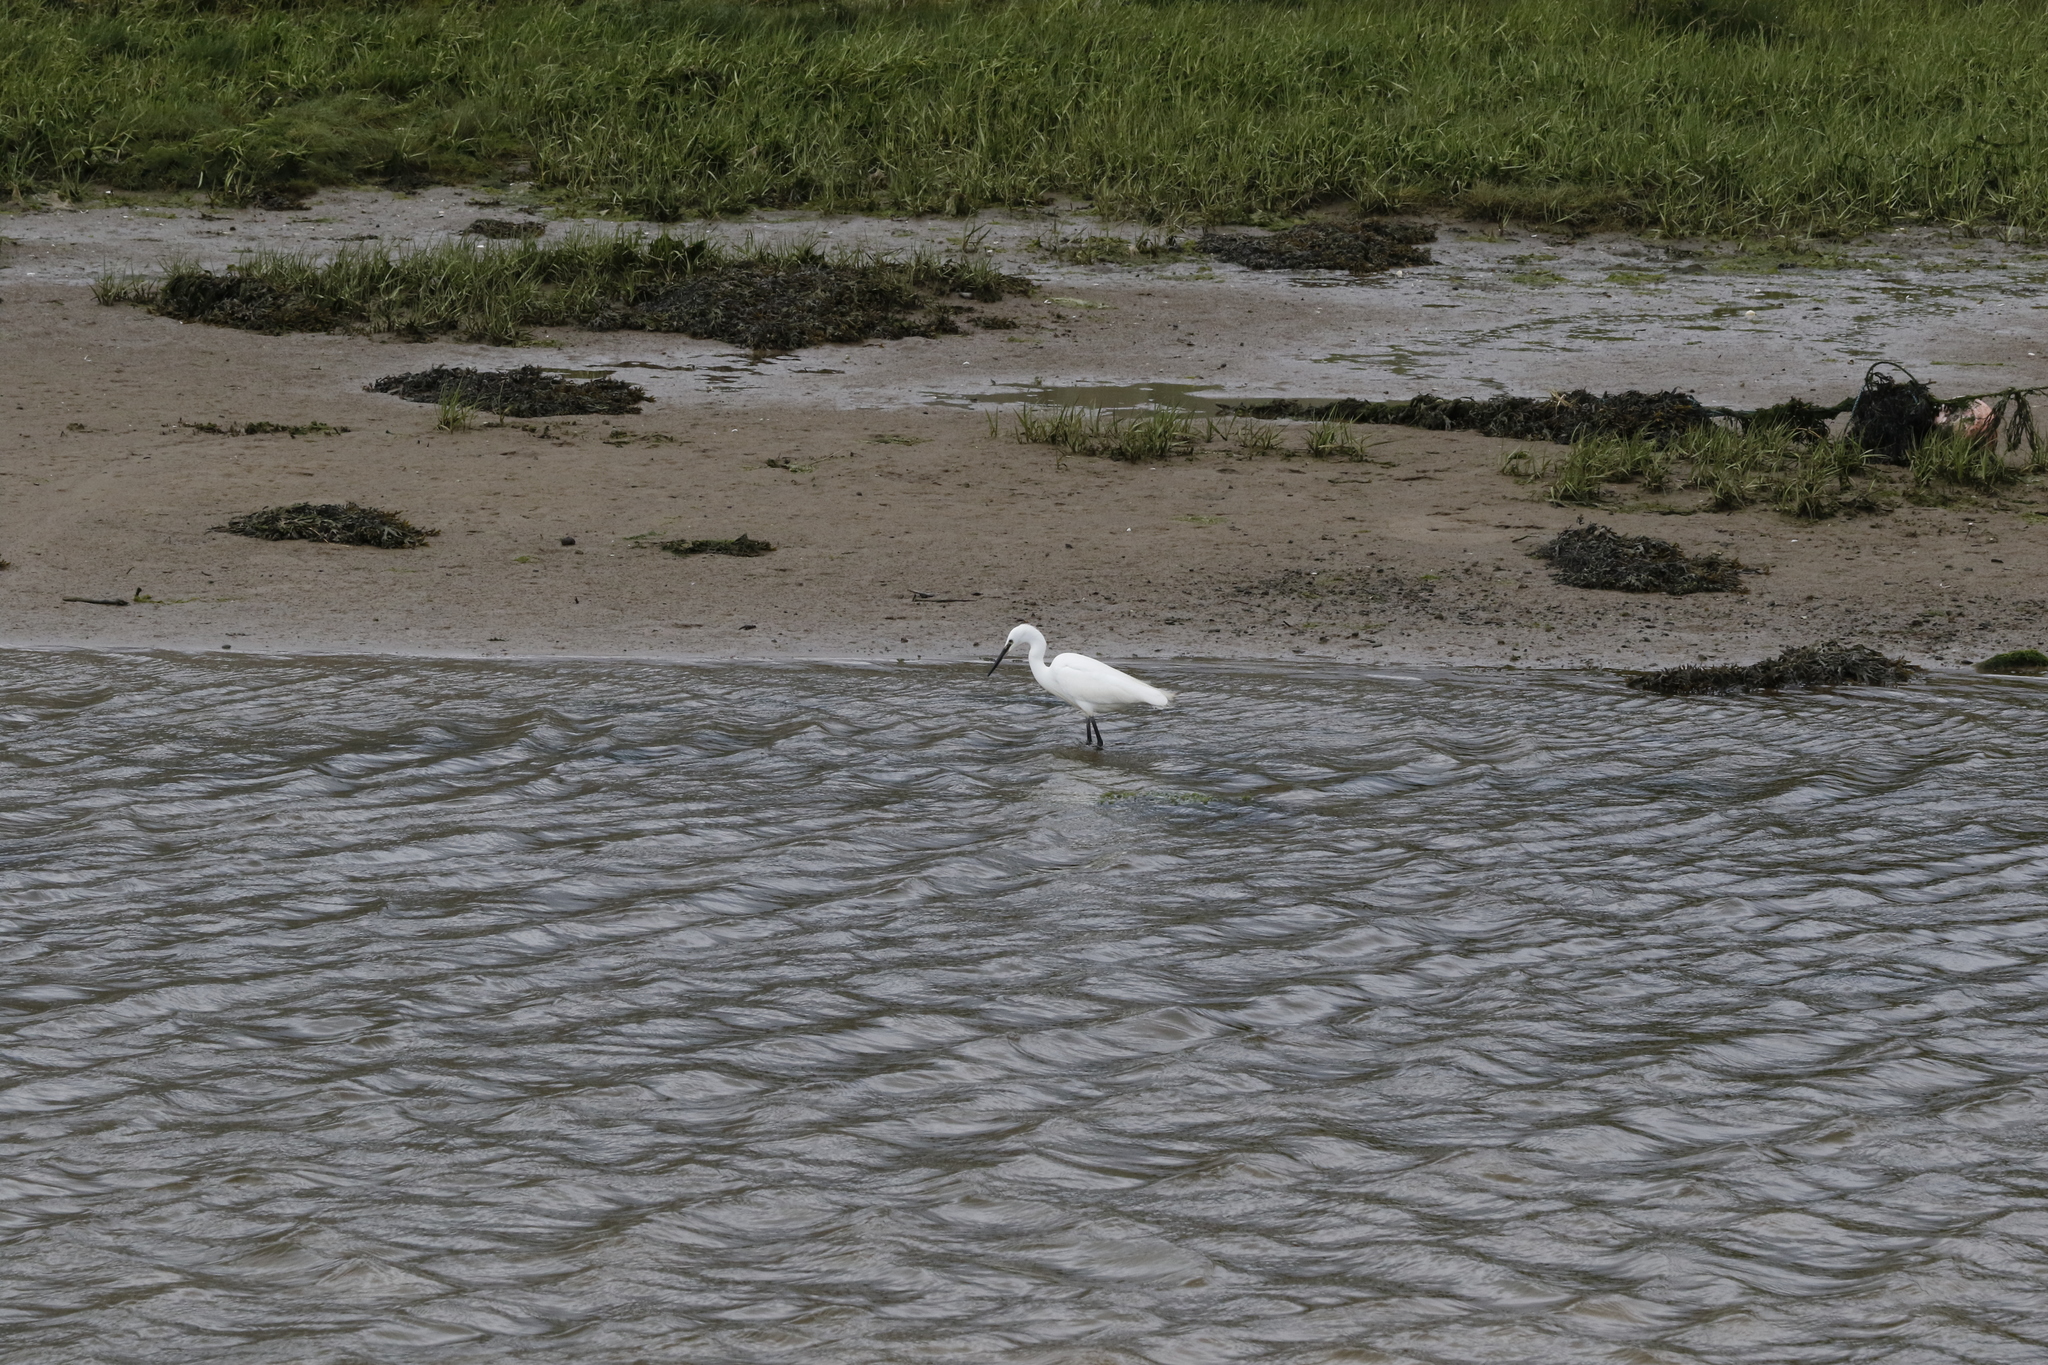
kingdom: Animalia
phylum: Chordata
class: Aves
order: Pelecaniformes
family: Ardeidae
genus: Egretta
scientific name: Egretta garzetta
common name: Little egret
